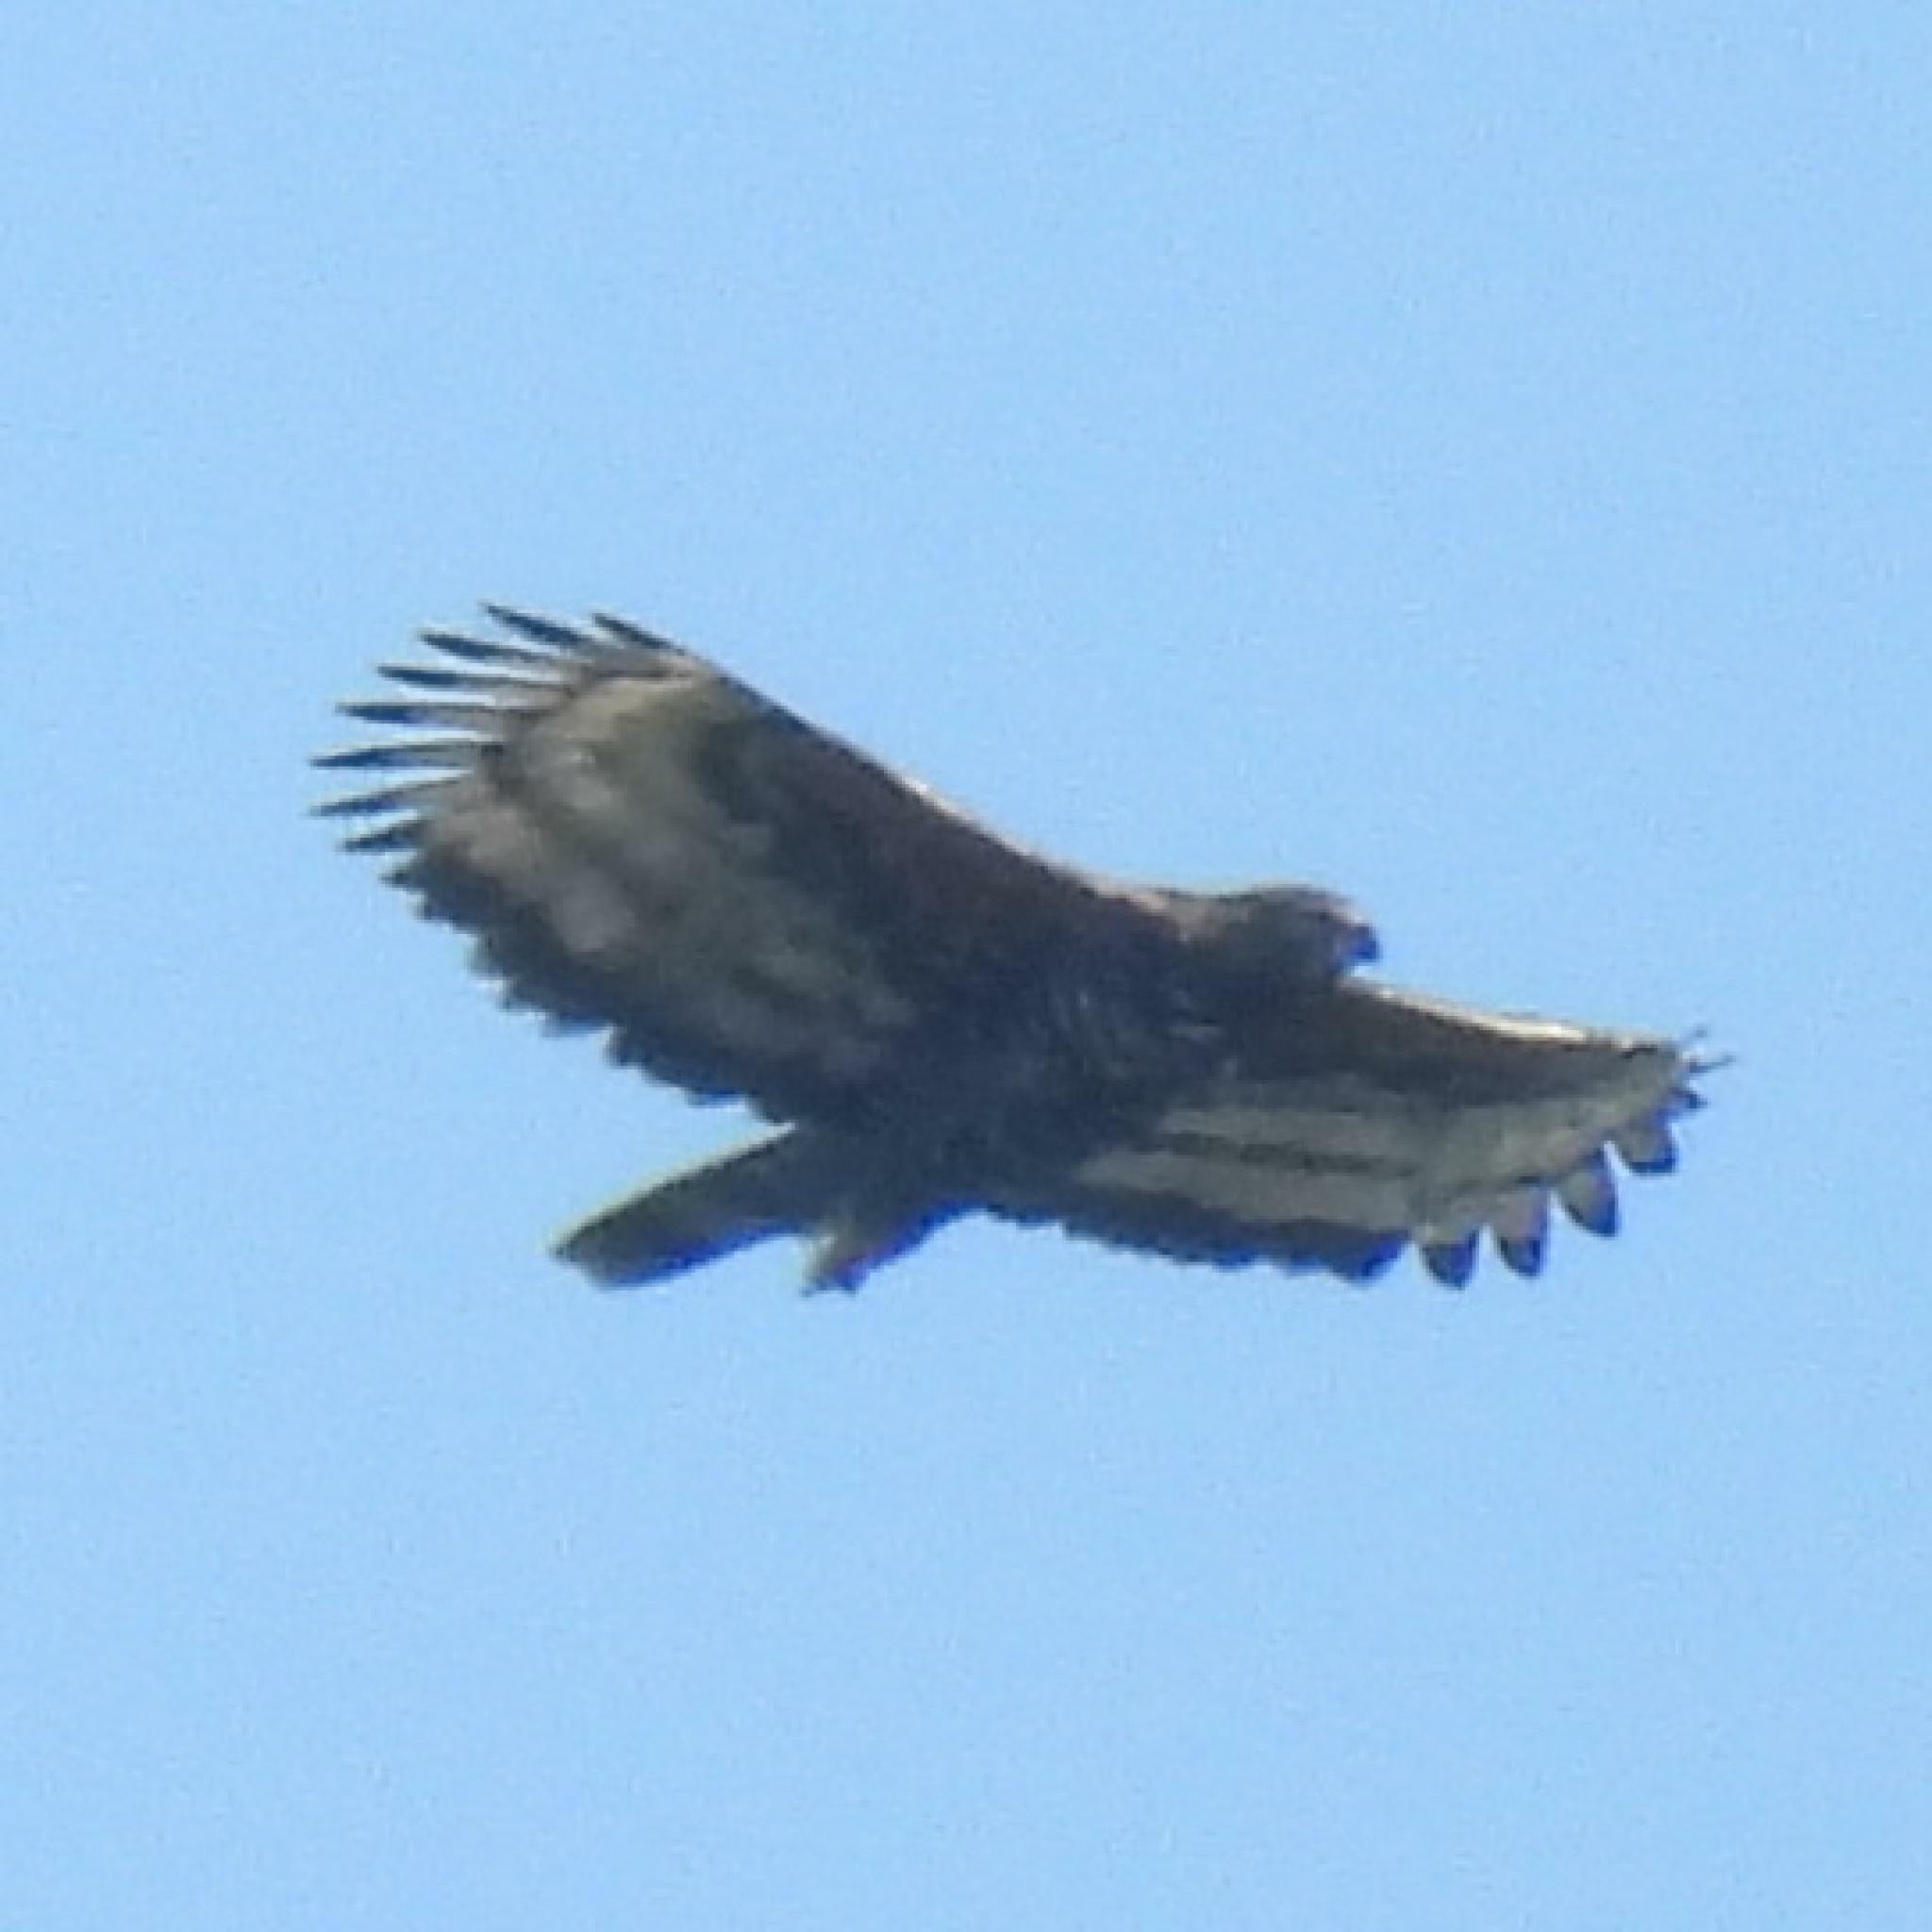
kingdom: Animalia
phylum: Chordata
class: Aves
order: Accipitriformes
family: Accipitridae
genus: Stephanoaetus
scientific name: Stephanoaetus coronatus
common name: Crowned eagle
